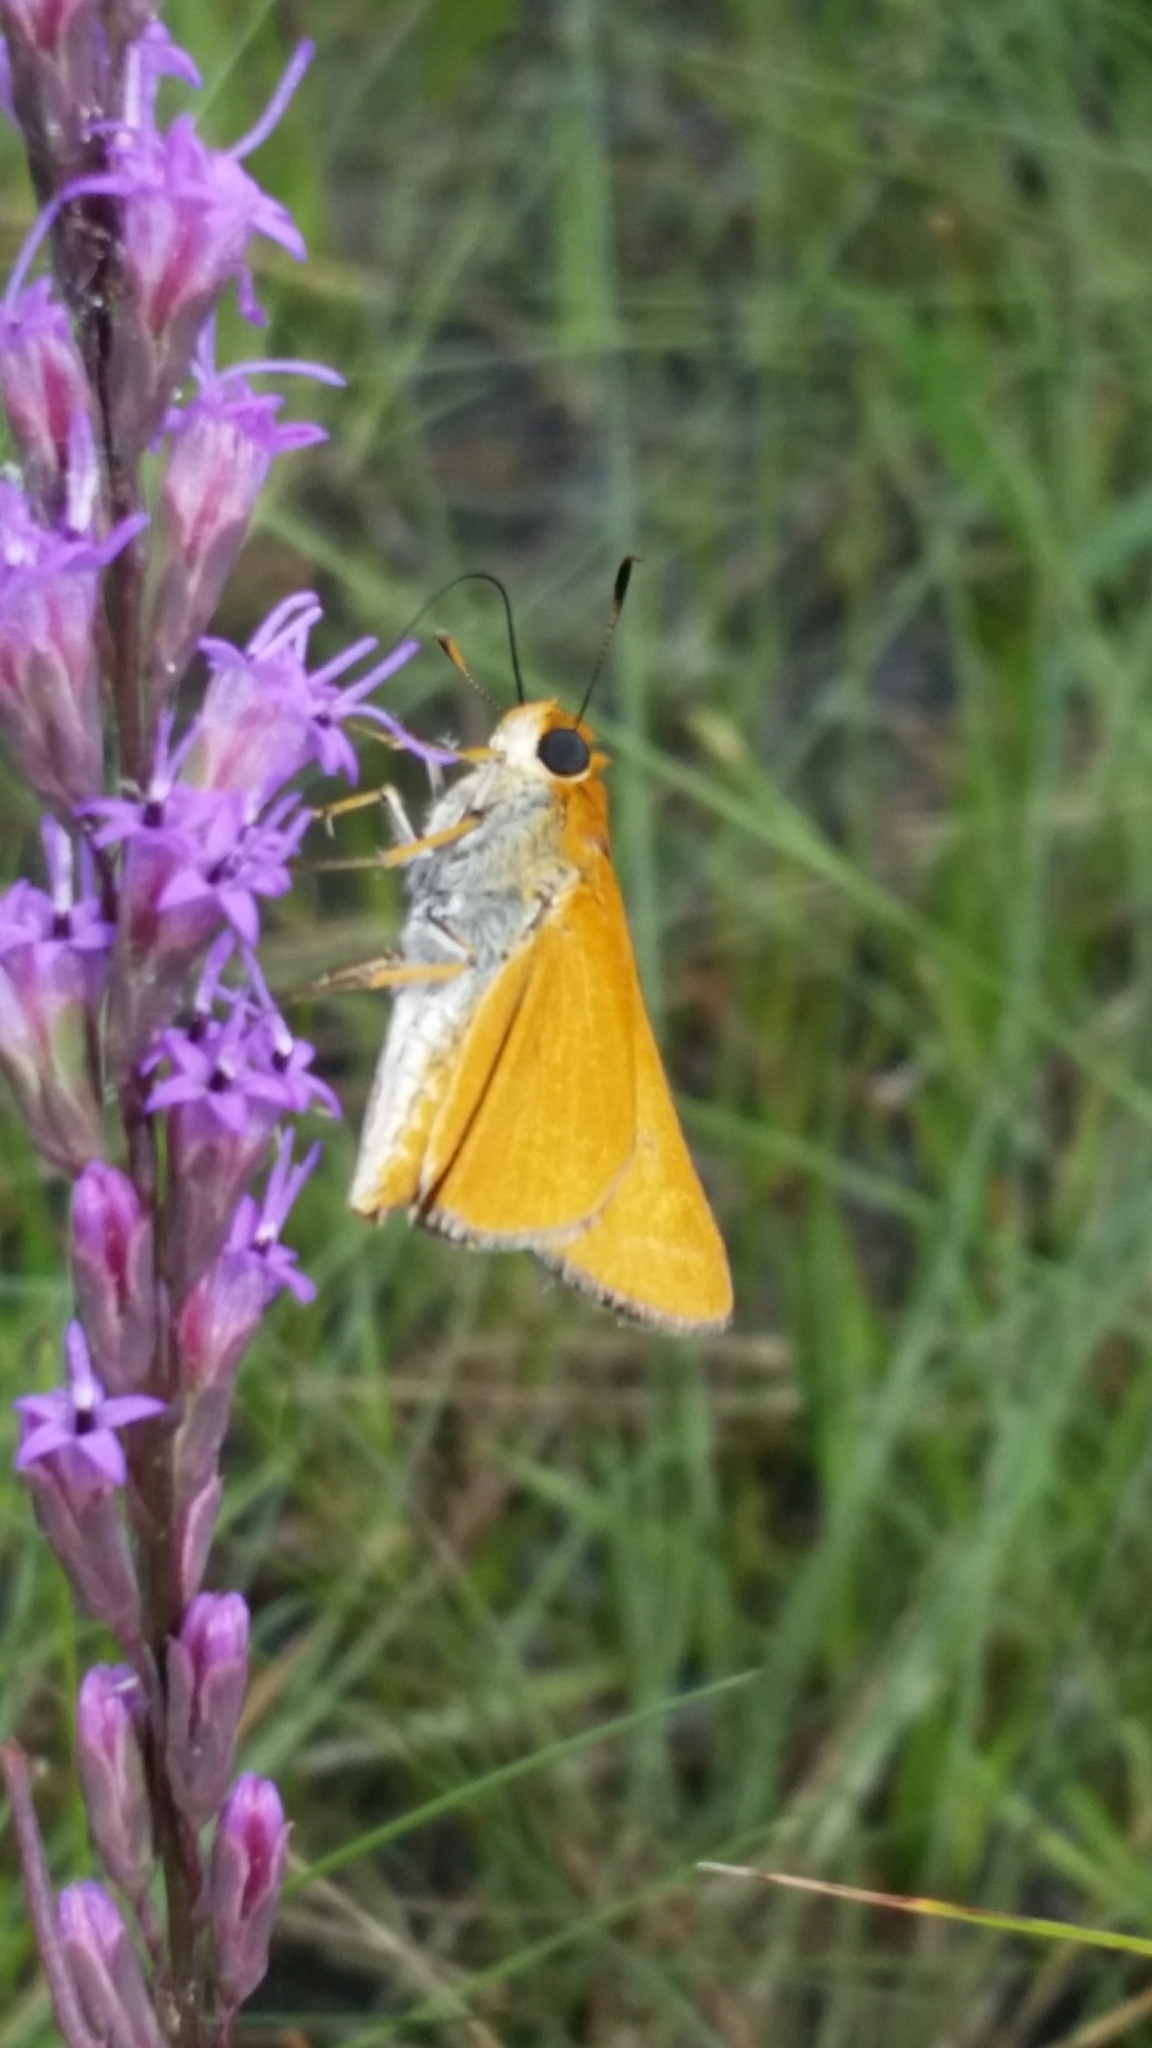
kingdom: Animalia
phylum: Arthropoda
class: Insecta
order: Lepidoptera
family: Hesperiidae
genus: Euphyes
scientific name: Euphyes arpa
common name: Palmetto skipper
